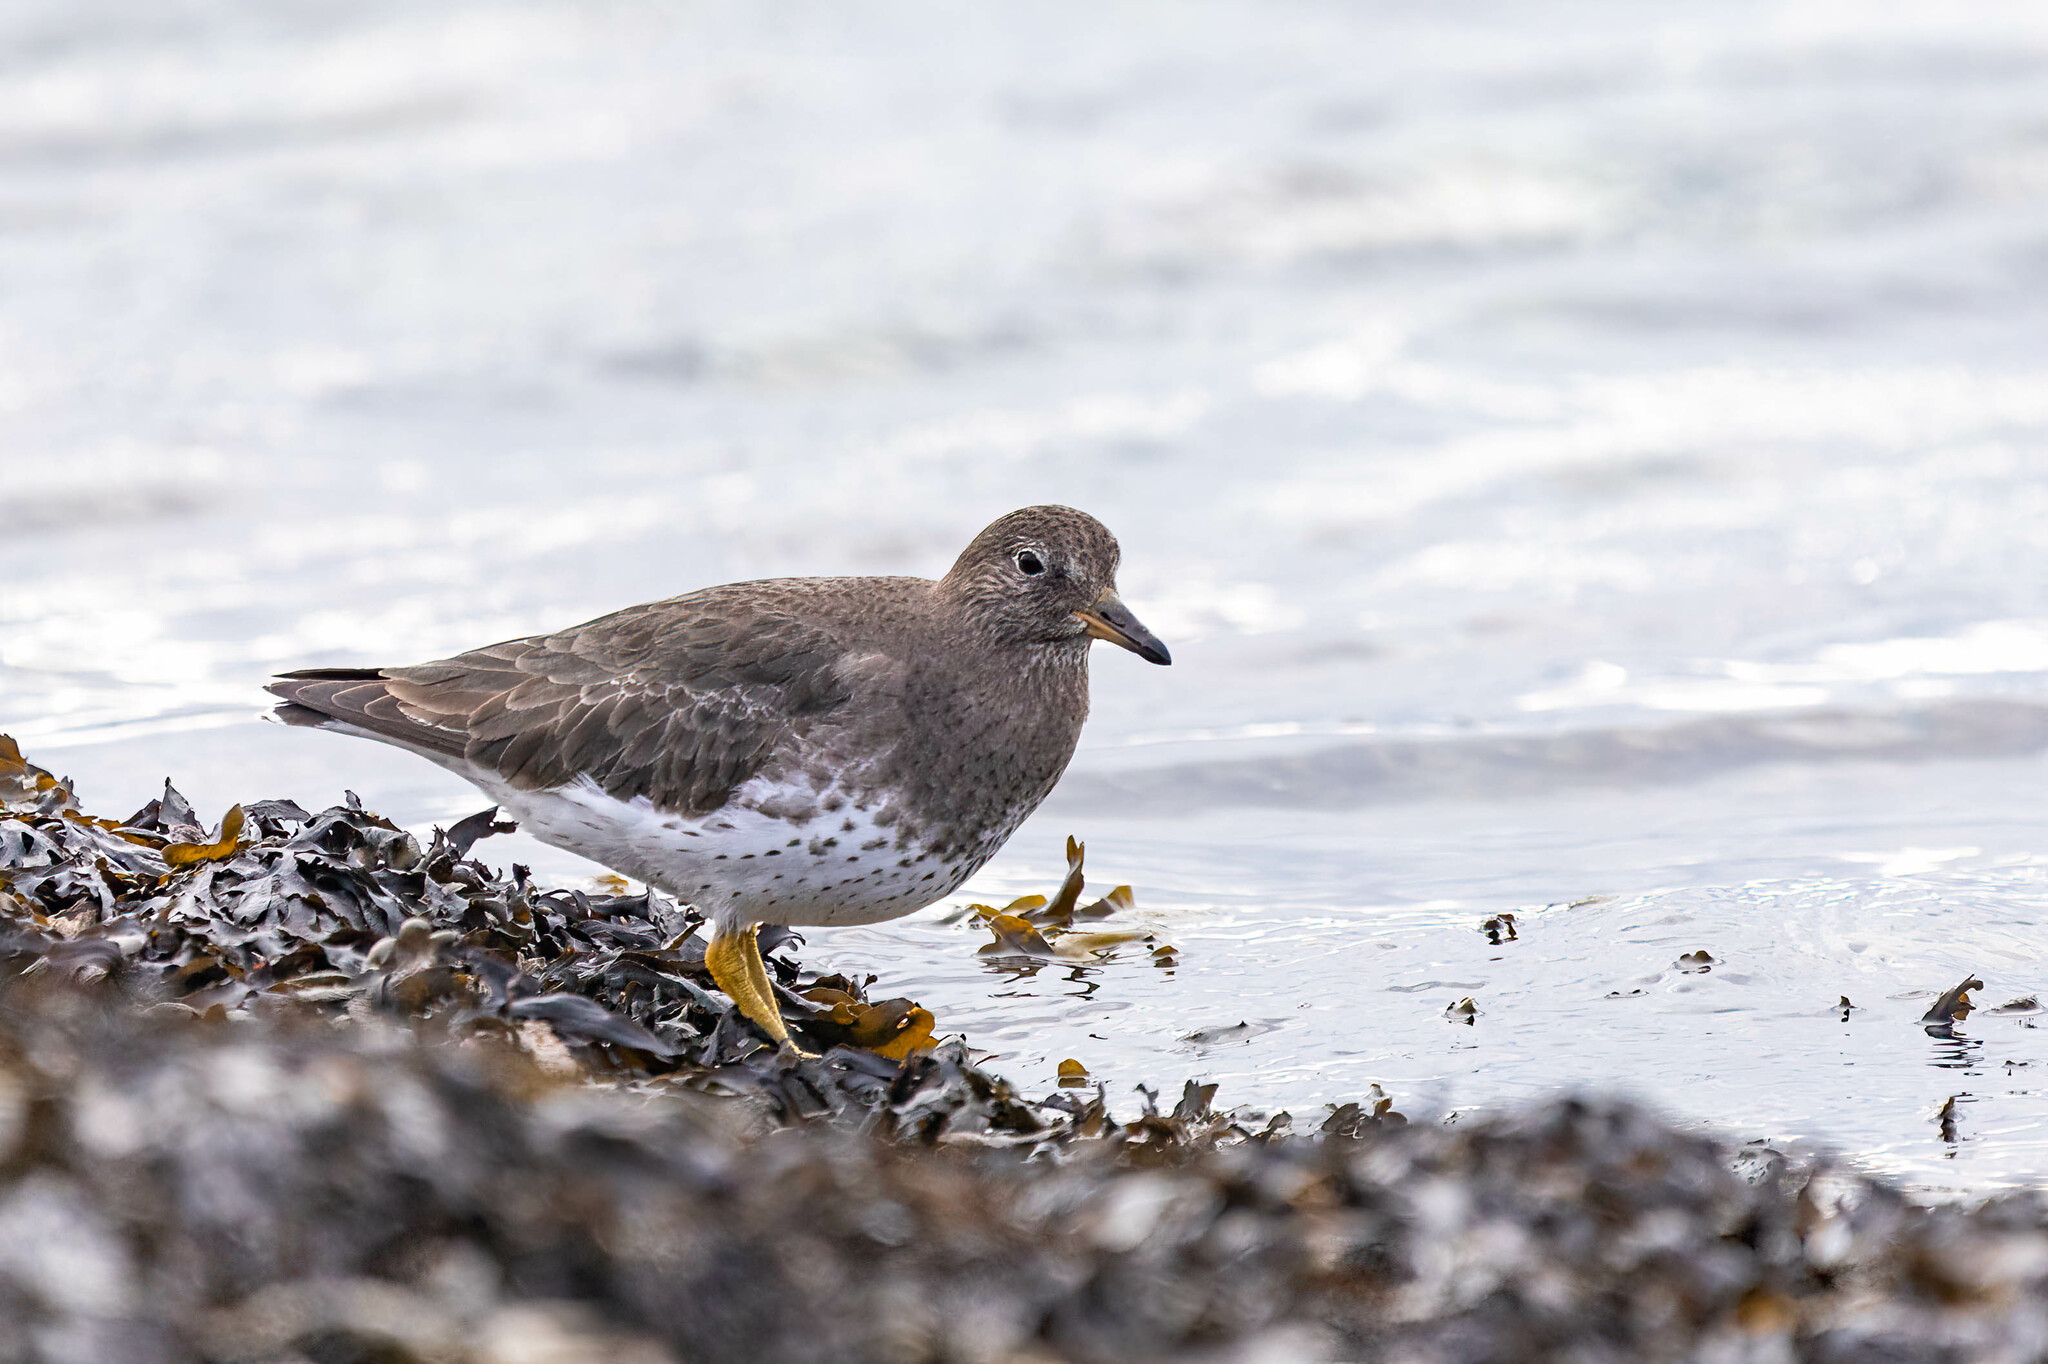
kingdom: Animalia
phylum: Chordata
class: Aves
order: Charadriiformes
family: Scolopacidae
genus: Calidris
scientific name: Calidris virgata
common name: Surfbird
